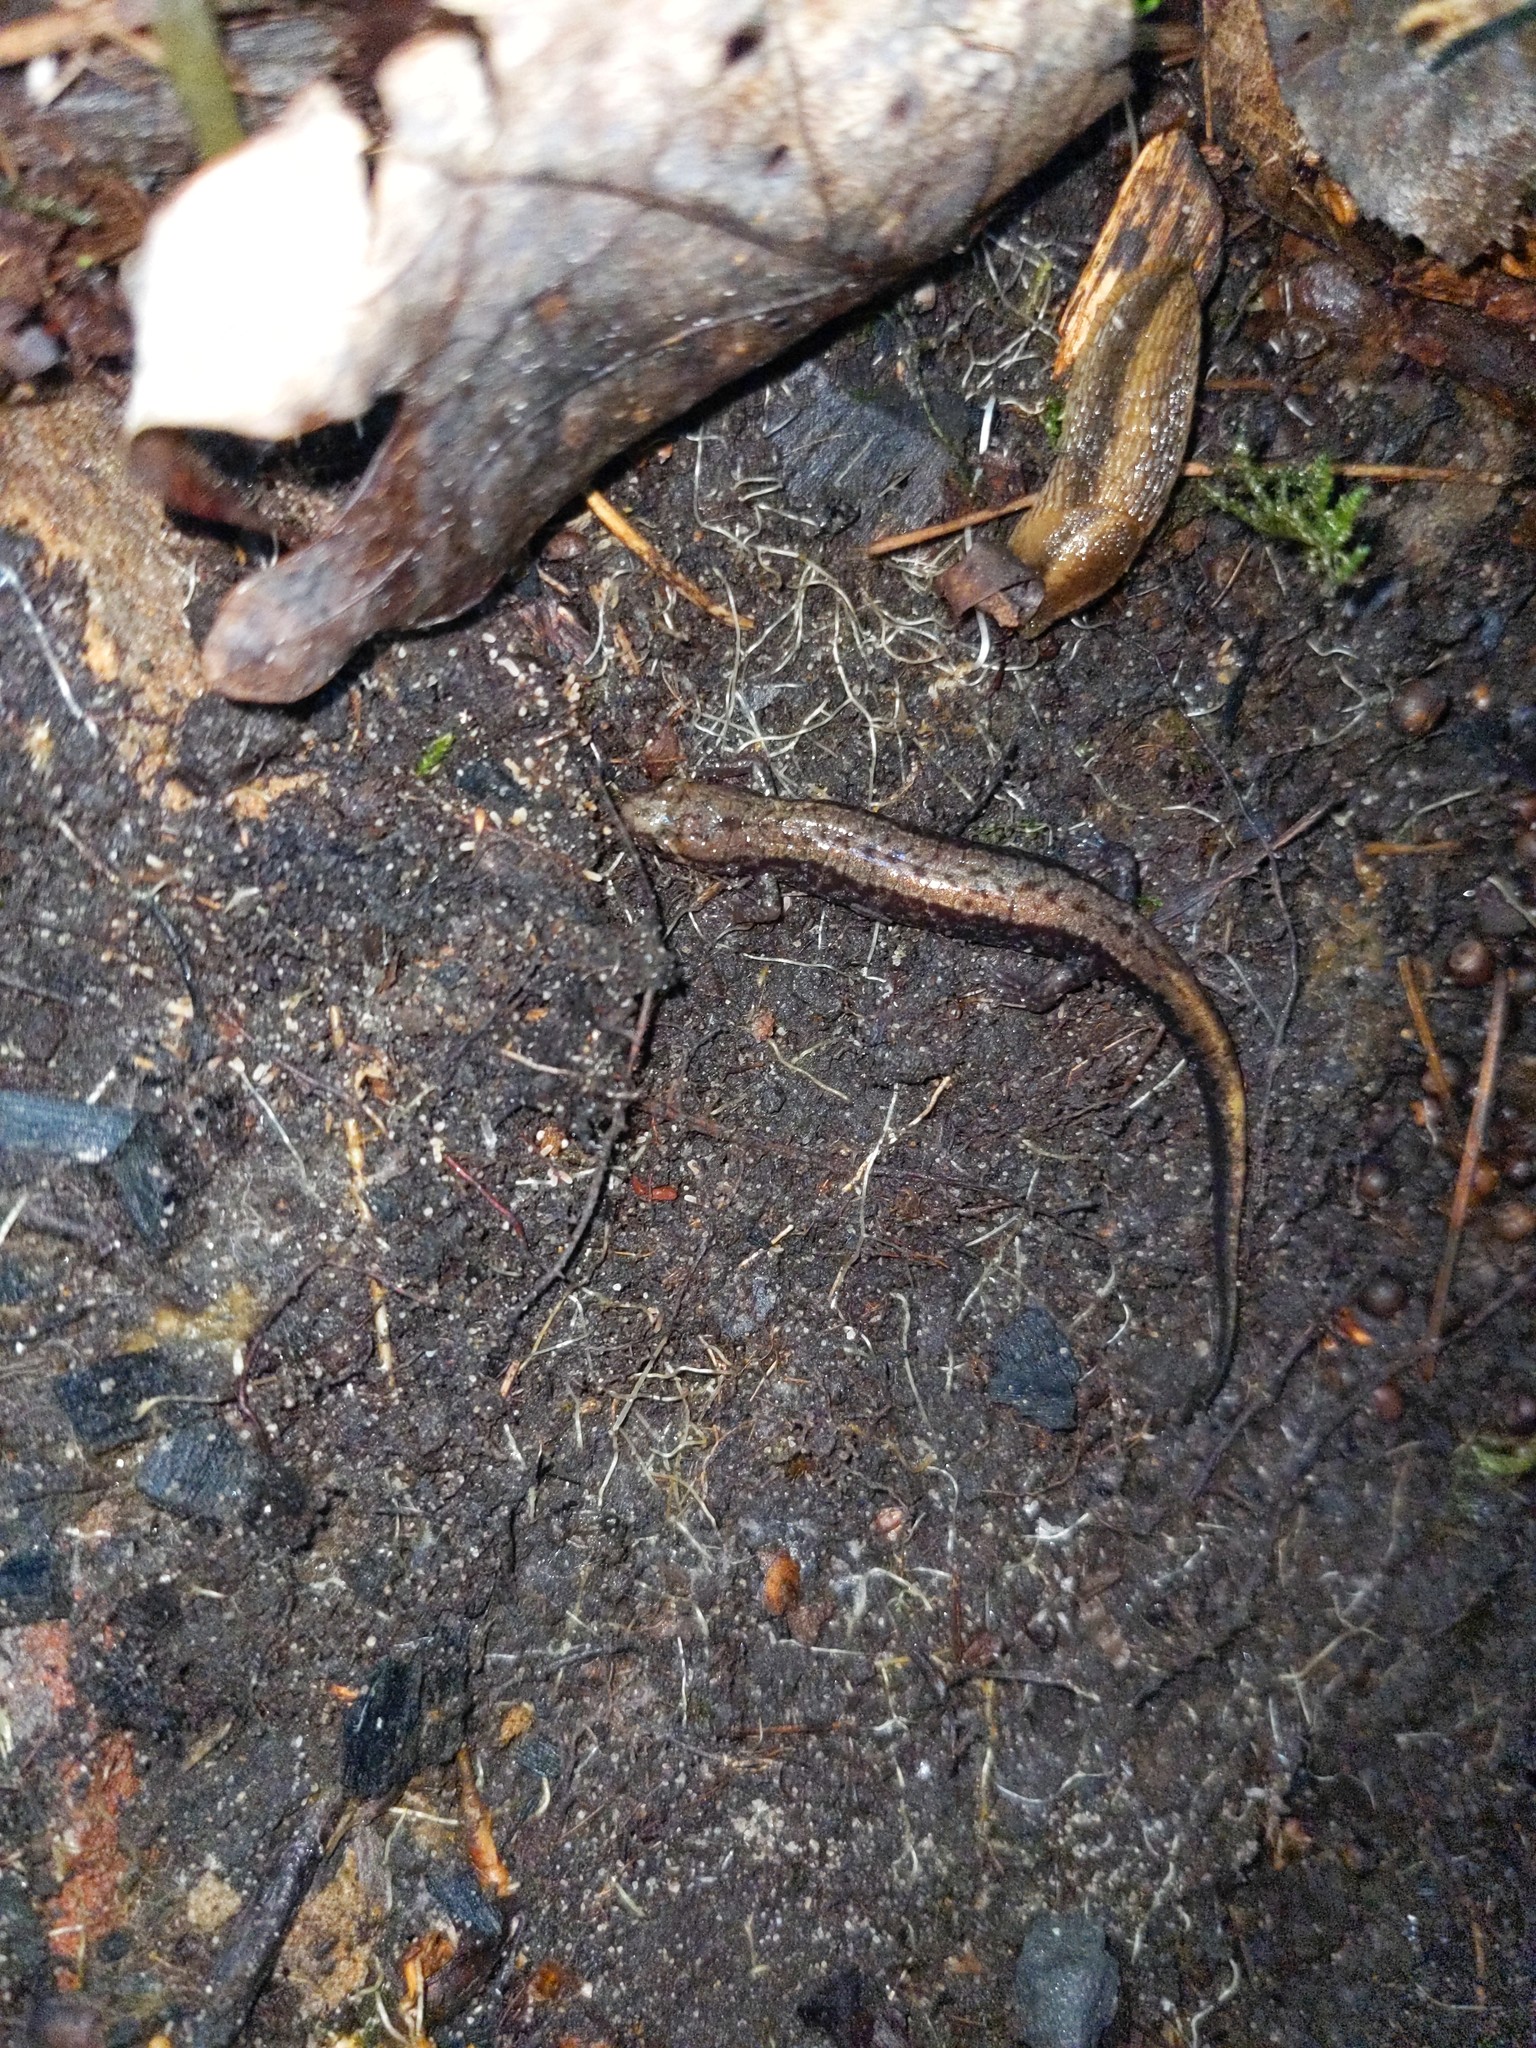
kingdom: Animalia
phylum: Chordata
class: Amphibia
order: Caudata
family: Plethodontidae
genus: Desmognathus
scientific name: Desmognathus ochrophaeus
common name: Allegheny mountain dusky salamander
